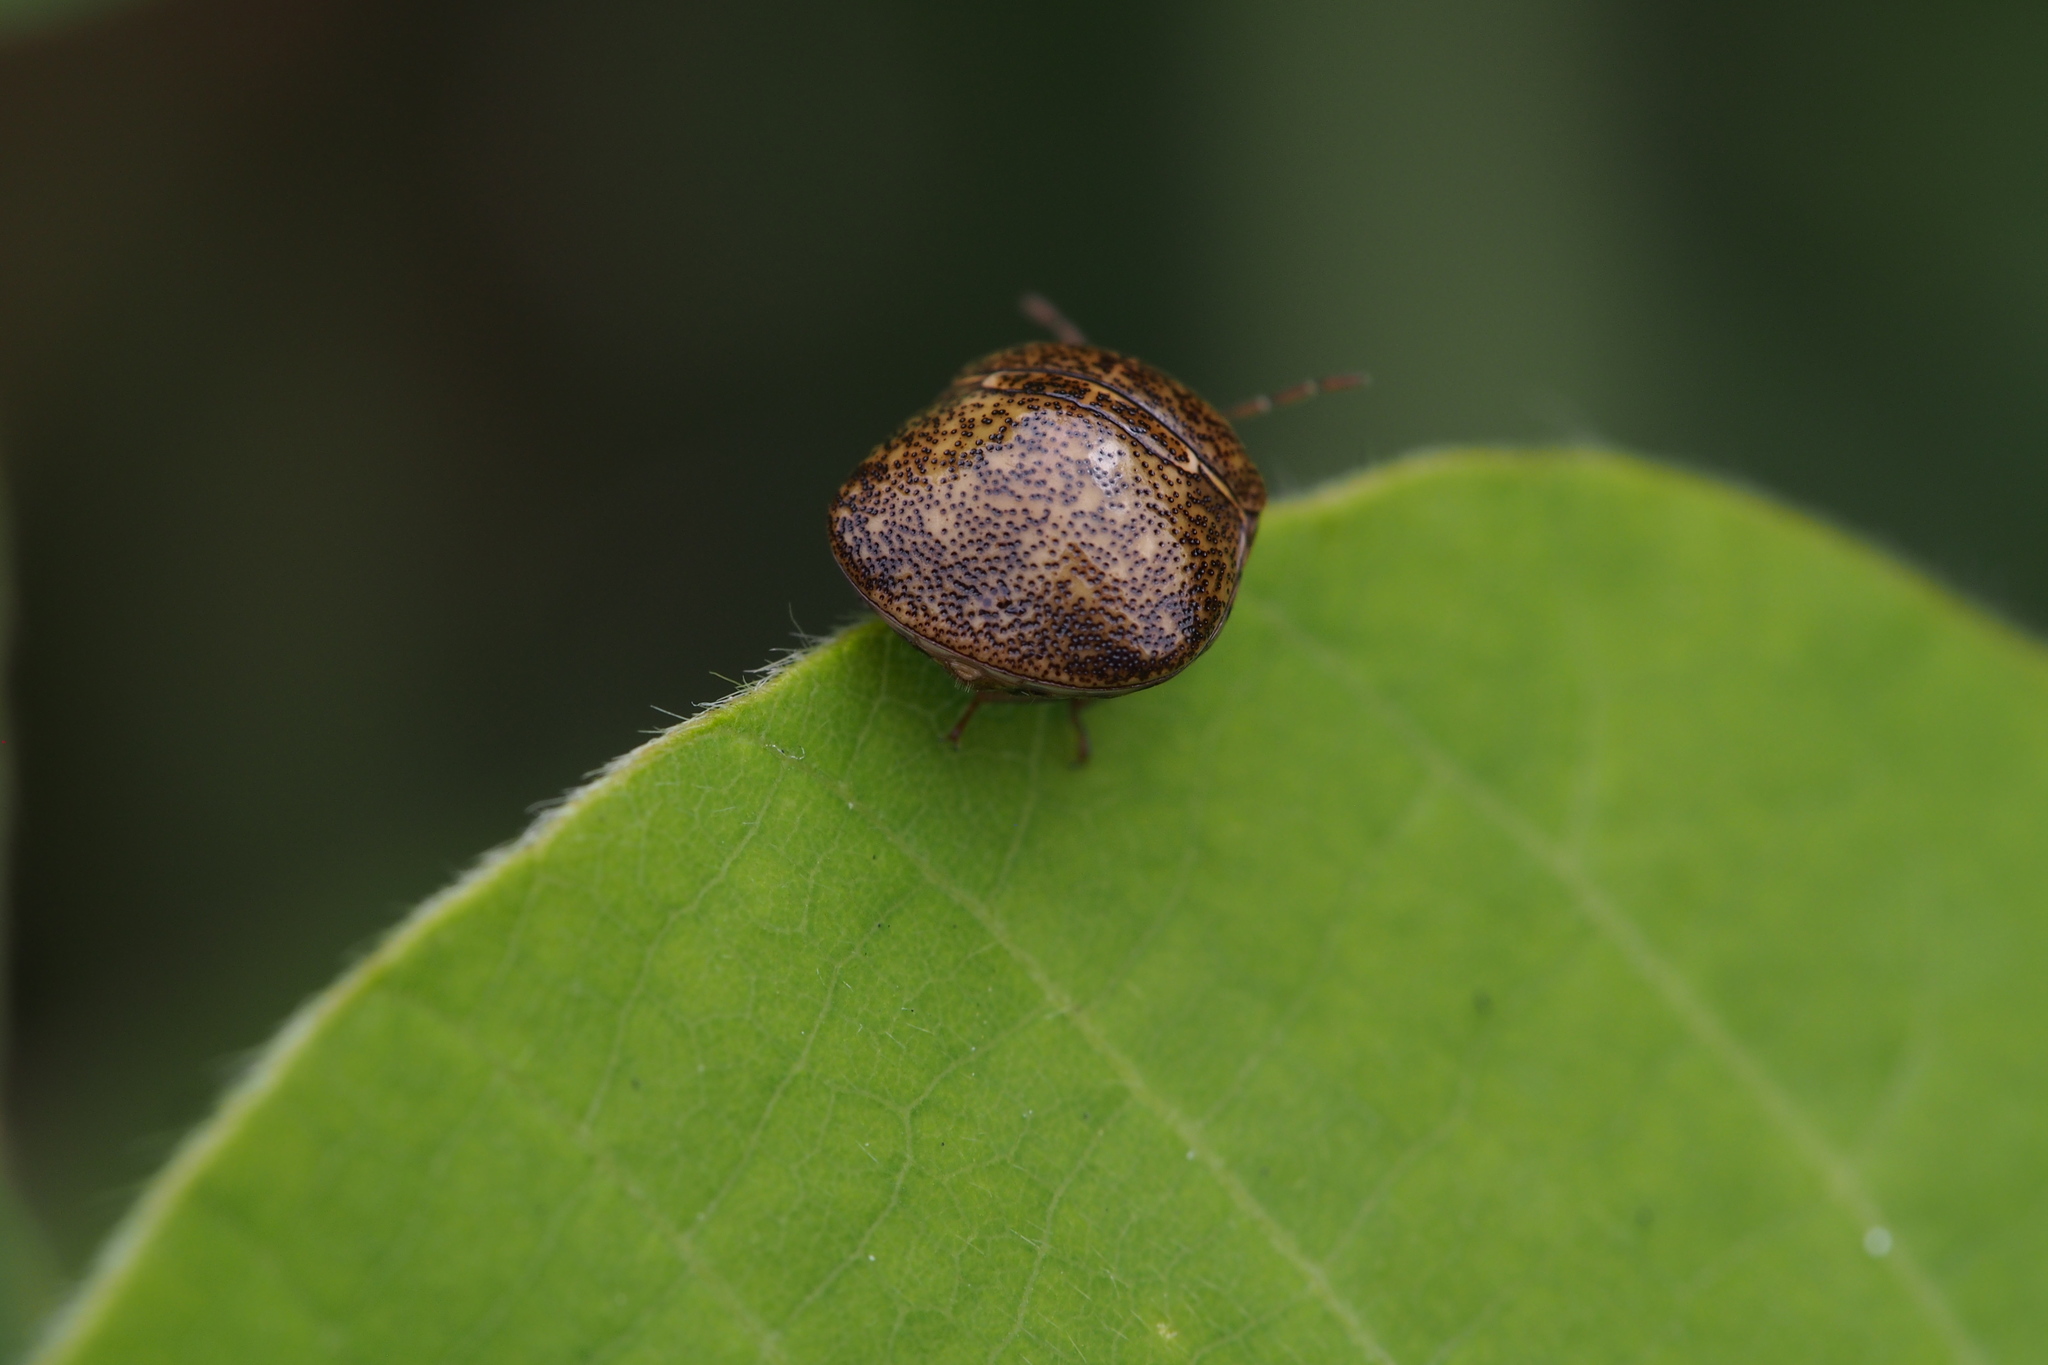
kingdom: Animalia
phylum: Arthropoda
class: Insecta
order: Hemiptera
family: Plataspidae
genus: Megacopta
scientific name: Megacopta punctatissima
